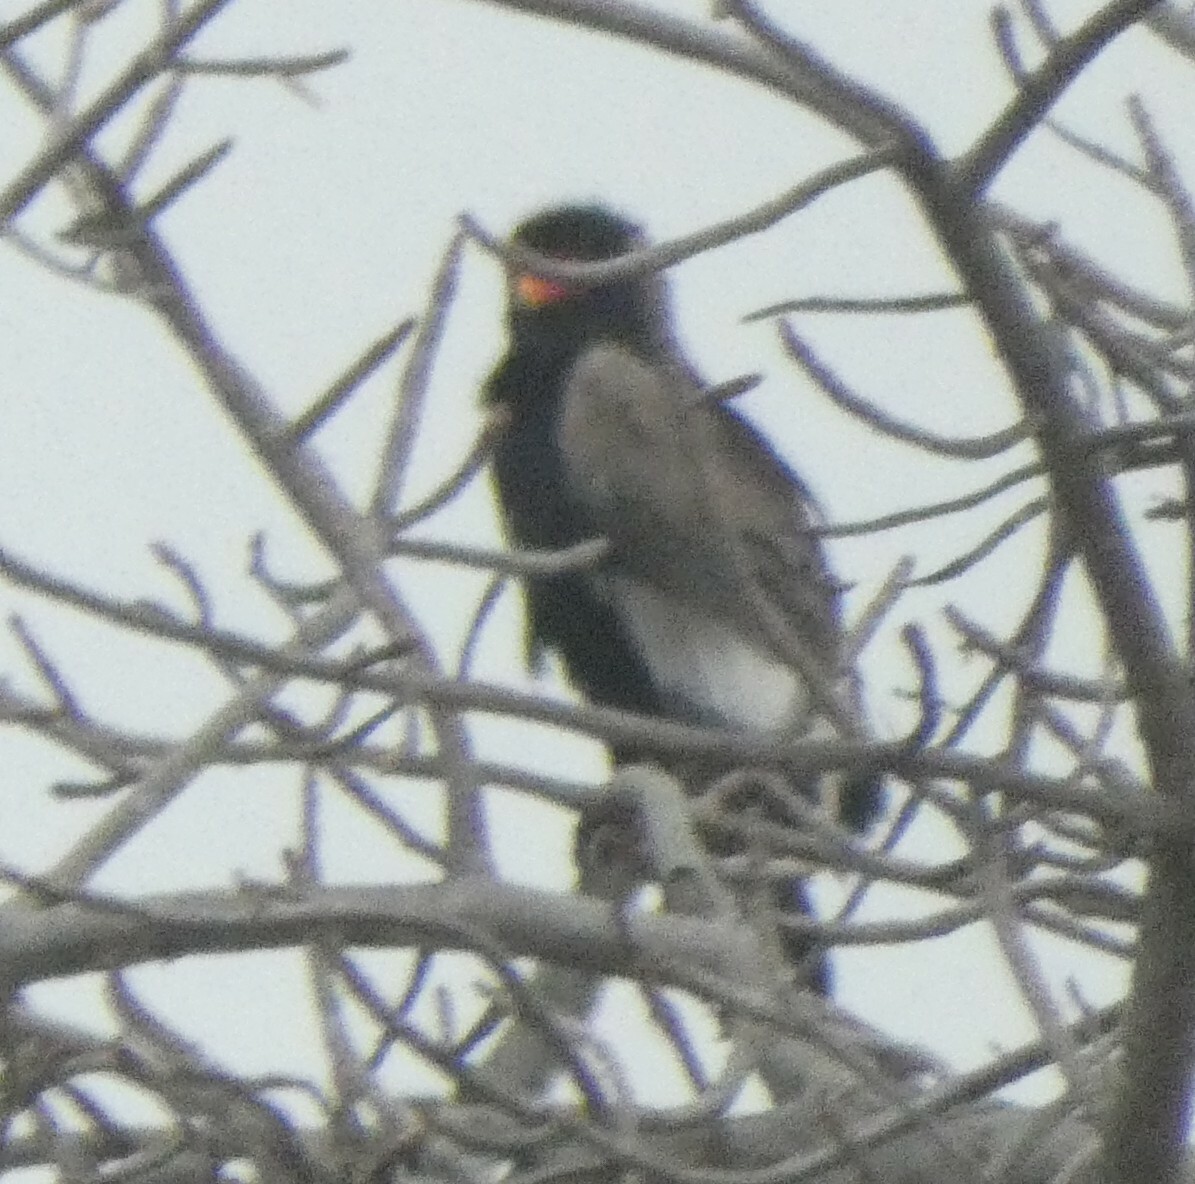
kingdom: Animalia
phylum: Chordata
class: Aves
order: Accipitriformes
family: Accipitridae
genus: Terathopius
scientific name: Terathopius ecaudatus
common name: Bateleur
